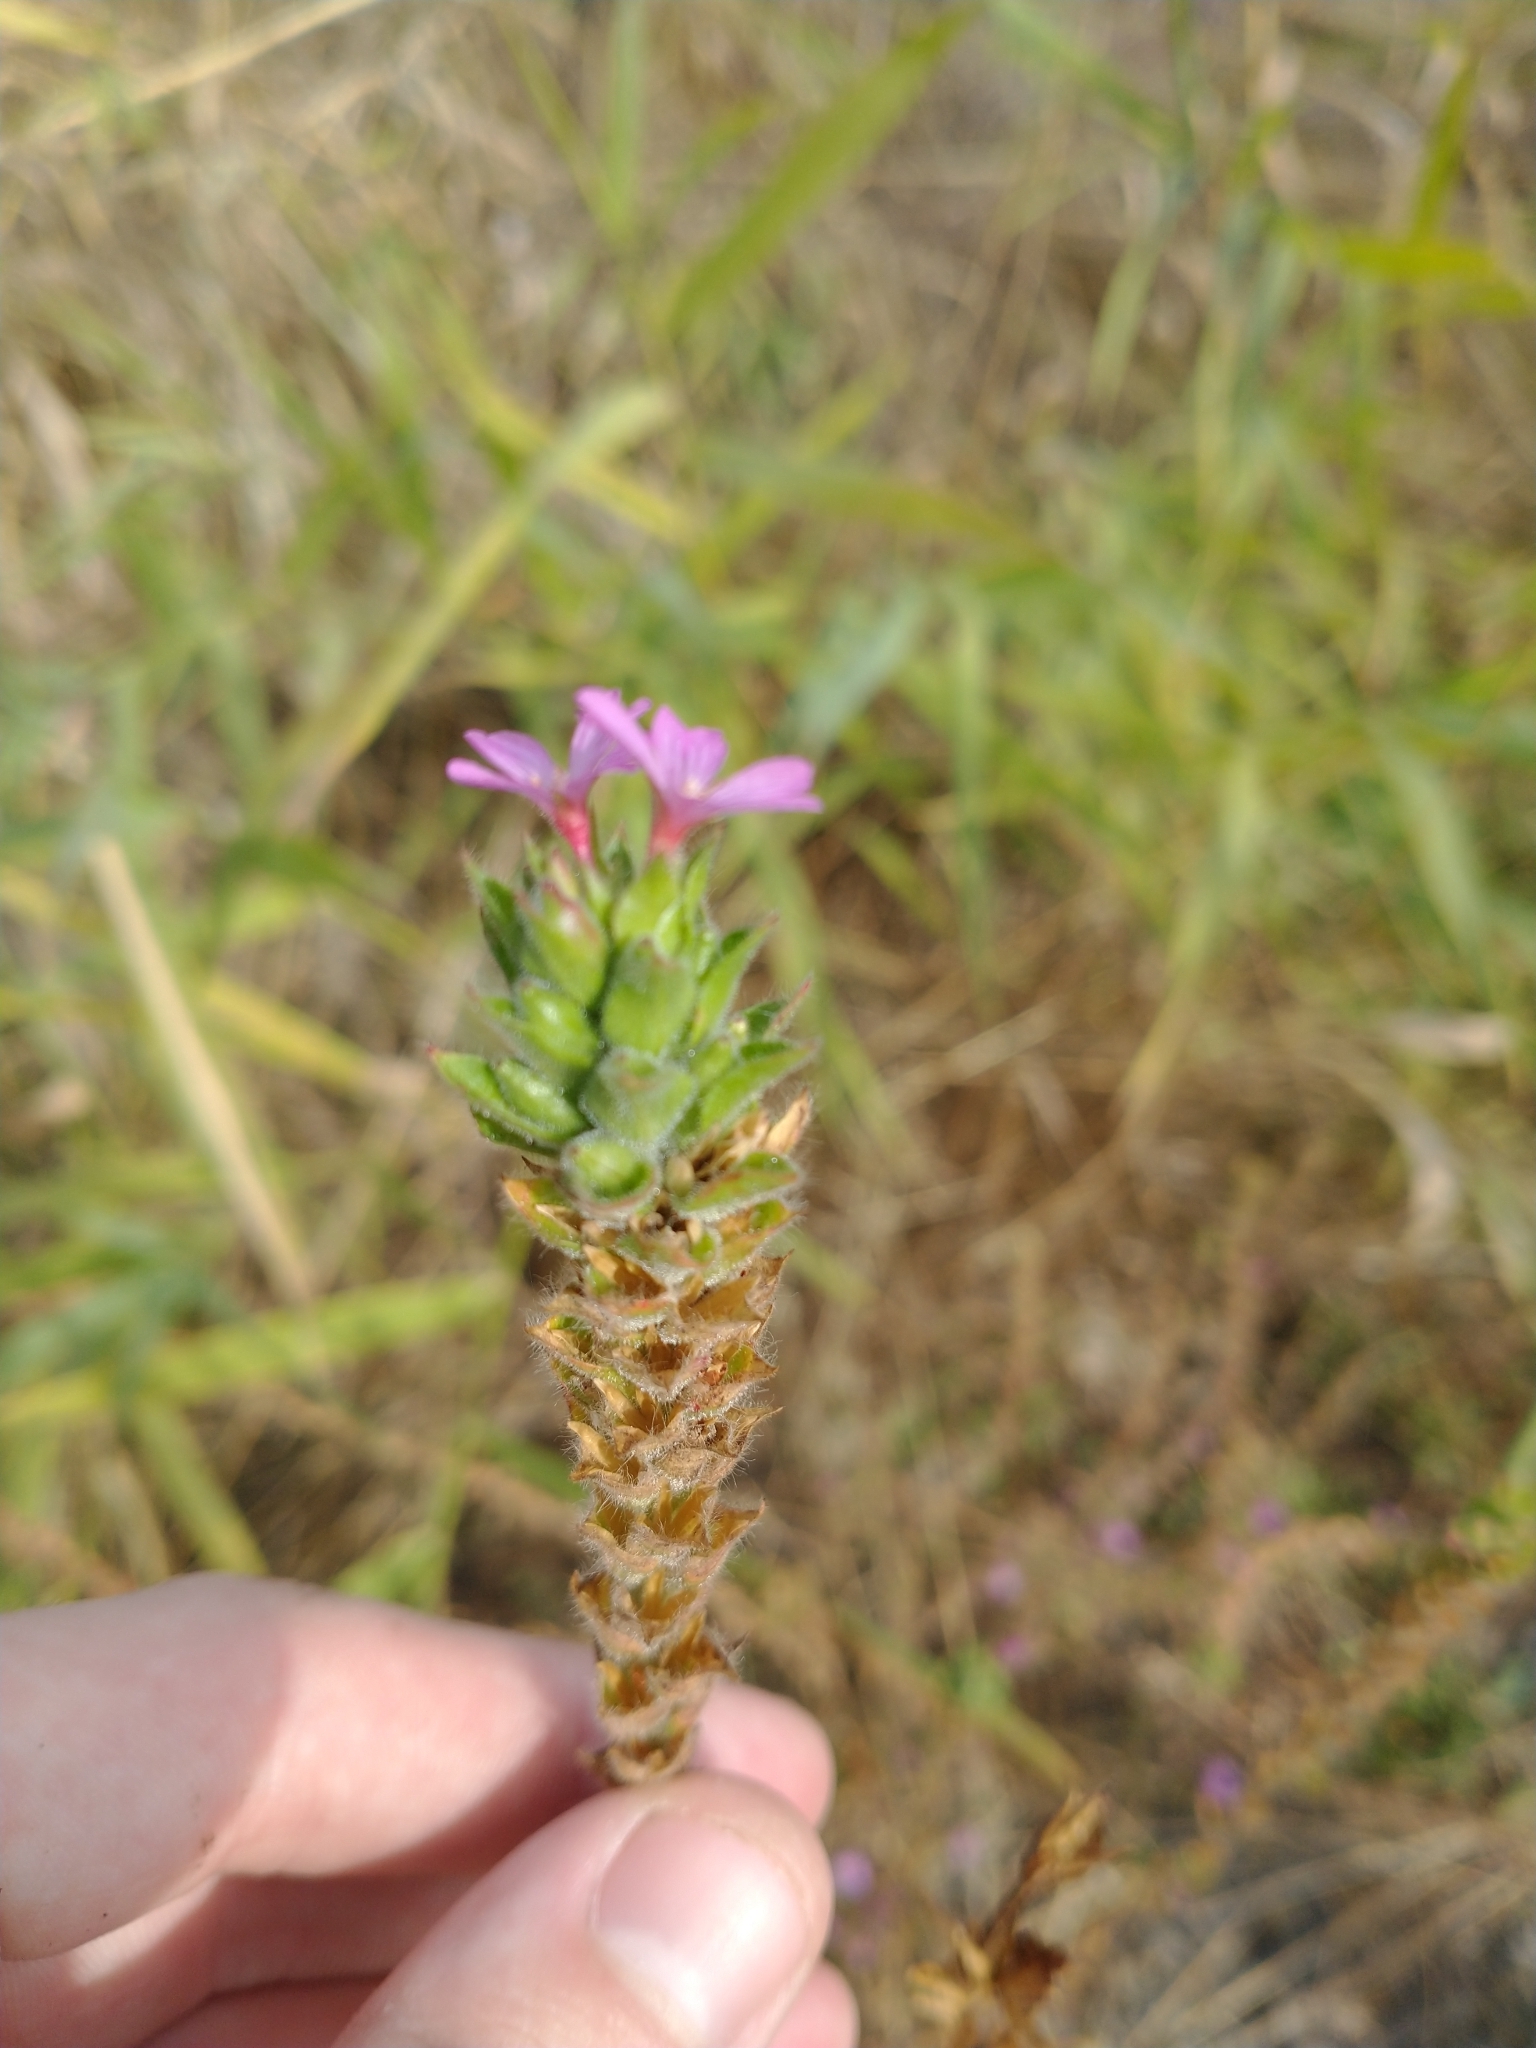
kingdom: Plantae
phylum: Tracheophyta
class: Magnoliopsida
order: Myrtales
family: Onagraceae
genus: Epilobium
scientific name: Epilobium densiflorum
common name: Dense spike-primrose
